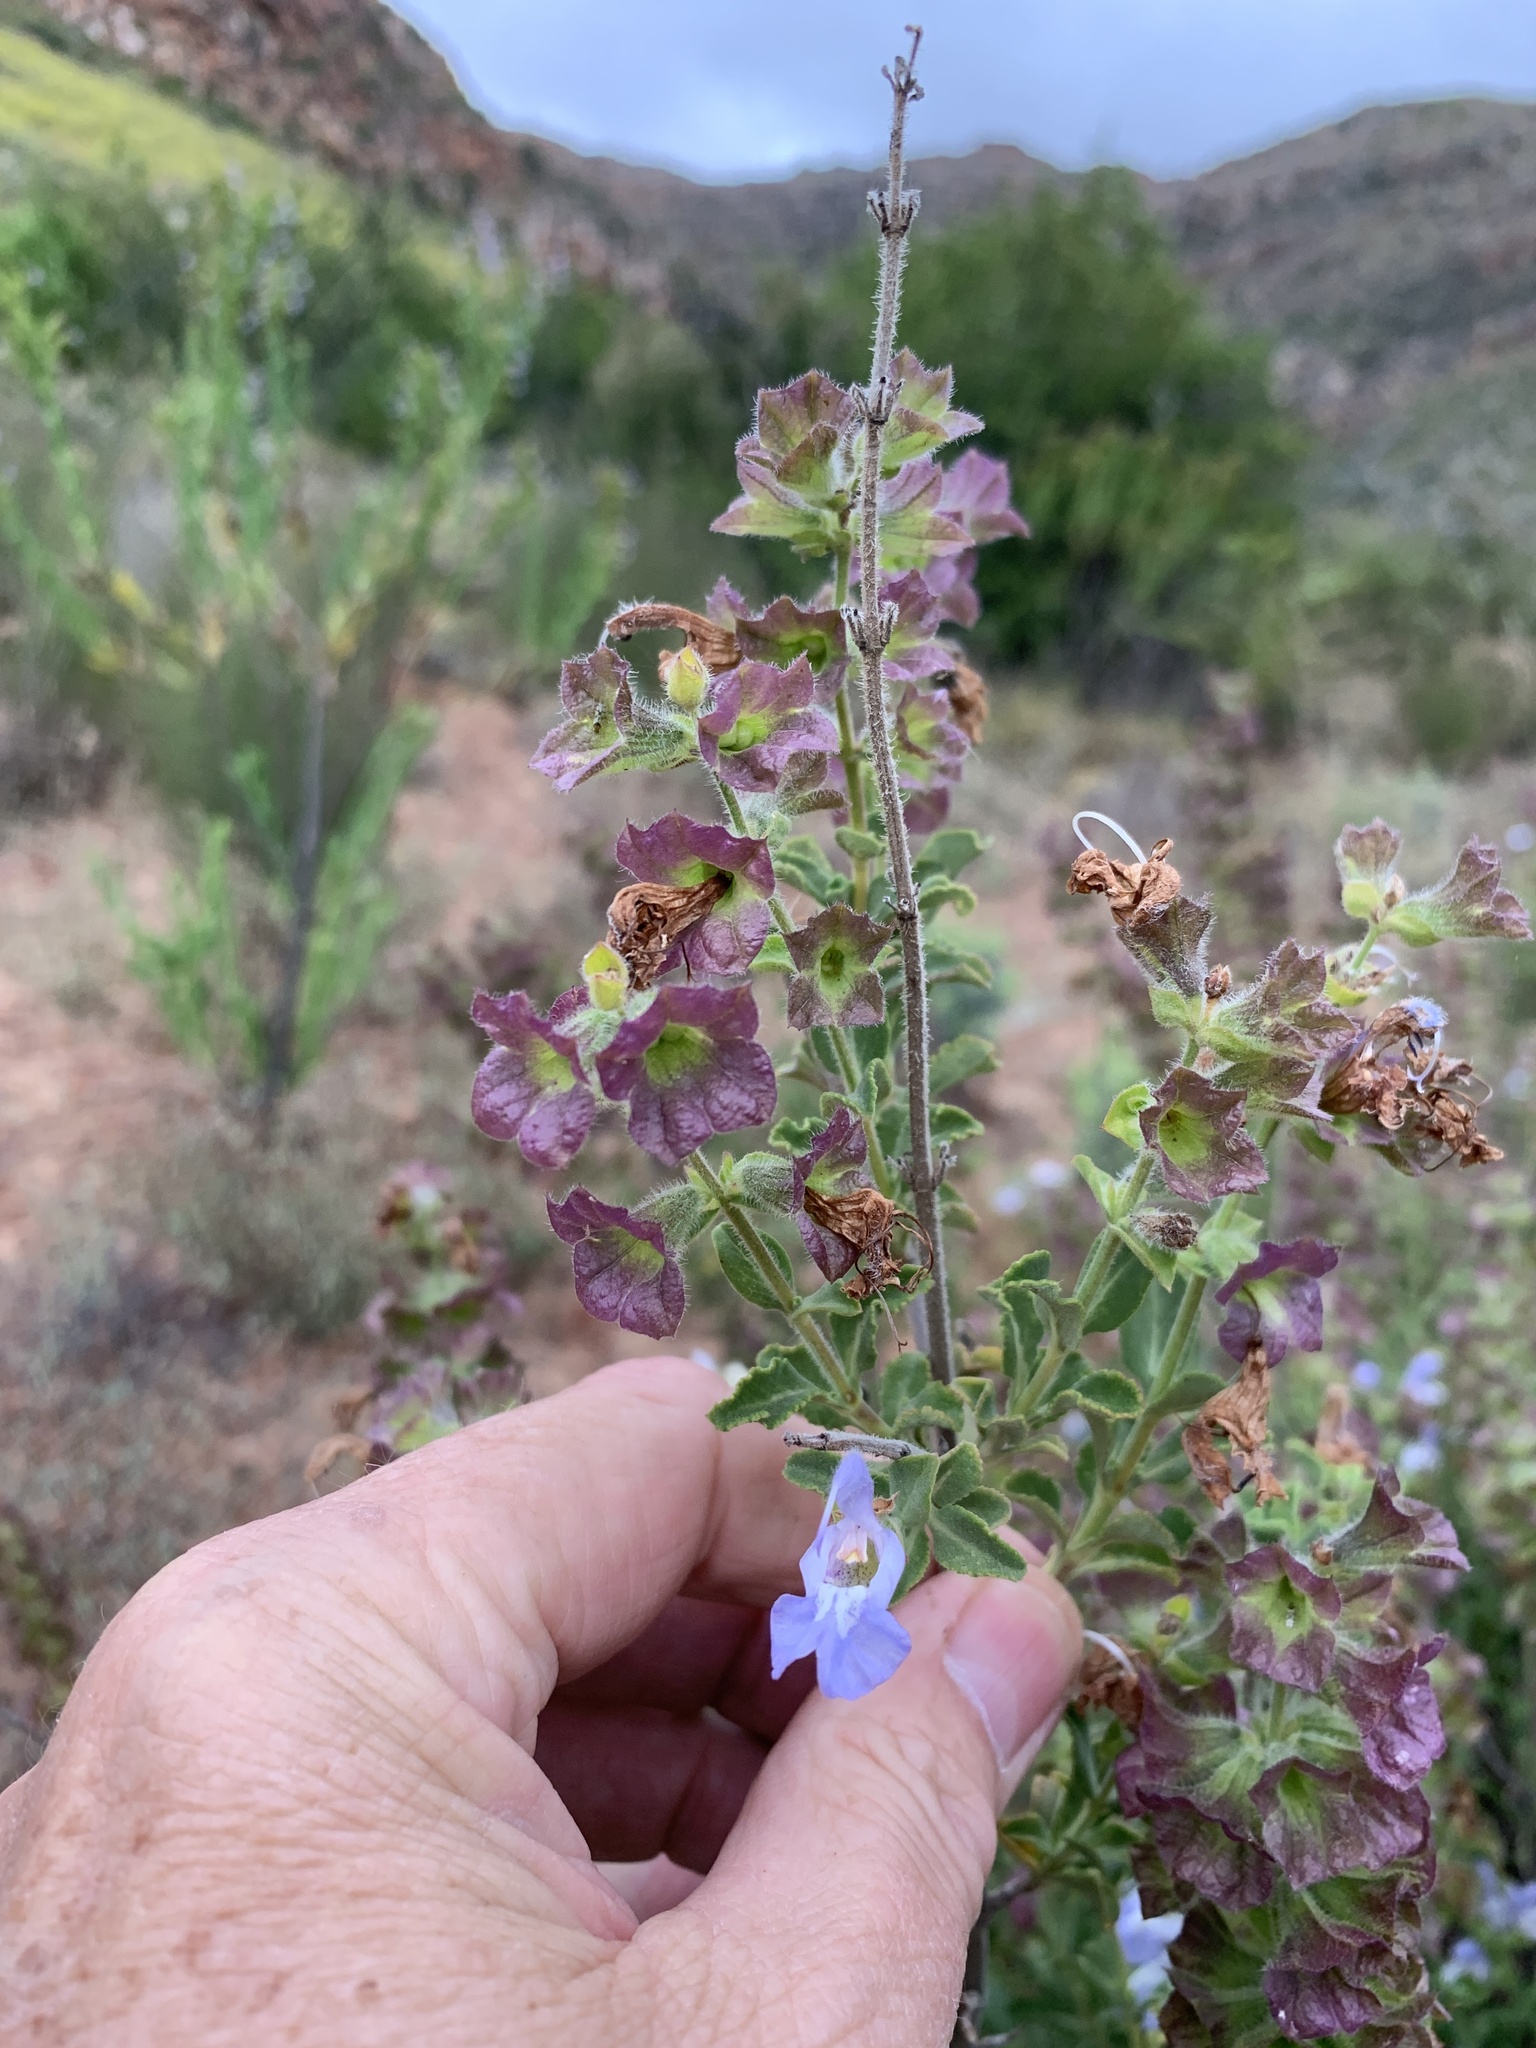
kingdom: Plantae
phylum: Tracheophyta
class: Magnoliopsida
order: Lamiales
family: Lamiaceae
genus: Salvia
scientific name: Salvia africana
